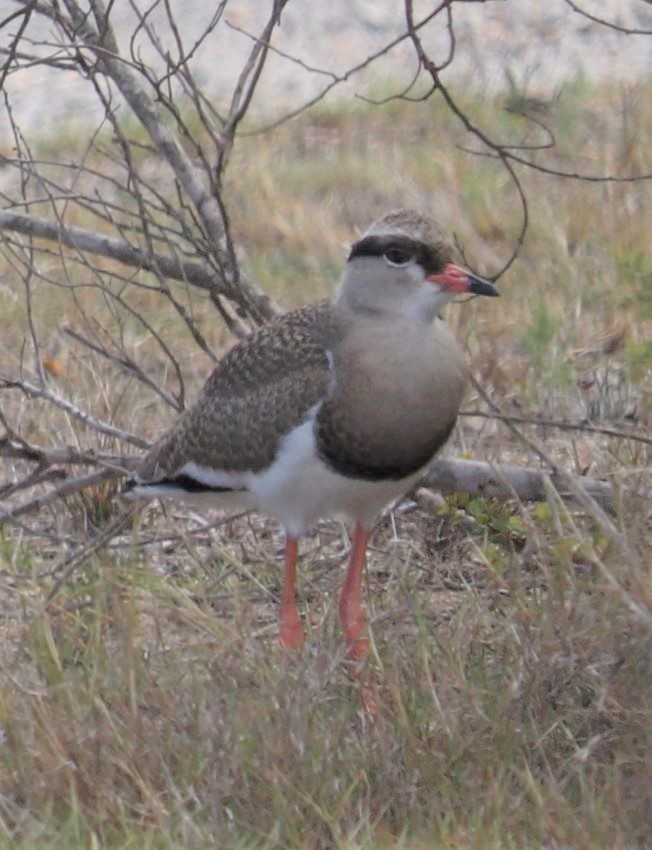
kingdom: Animalia
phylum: Chordata
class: Aves
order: Charadriiformes
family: Charadriidae
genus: Vanellus
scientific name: Vanellus coronatus
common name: Crowned lapwing
